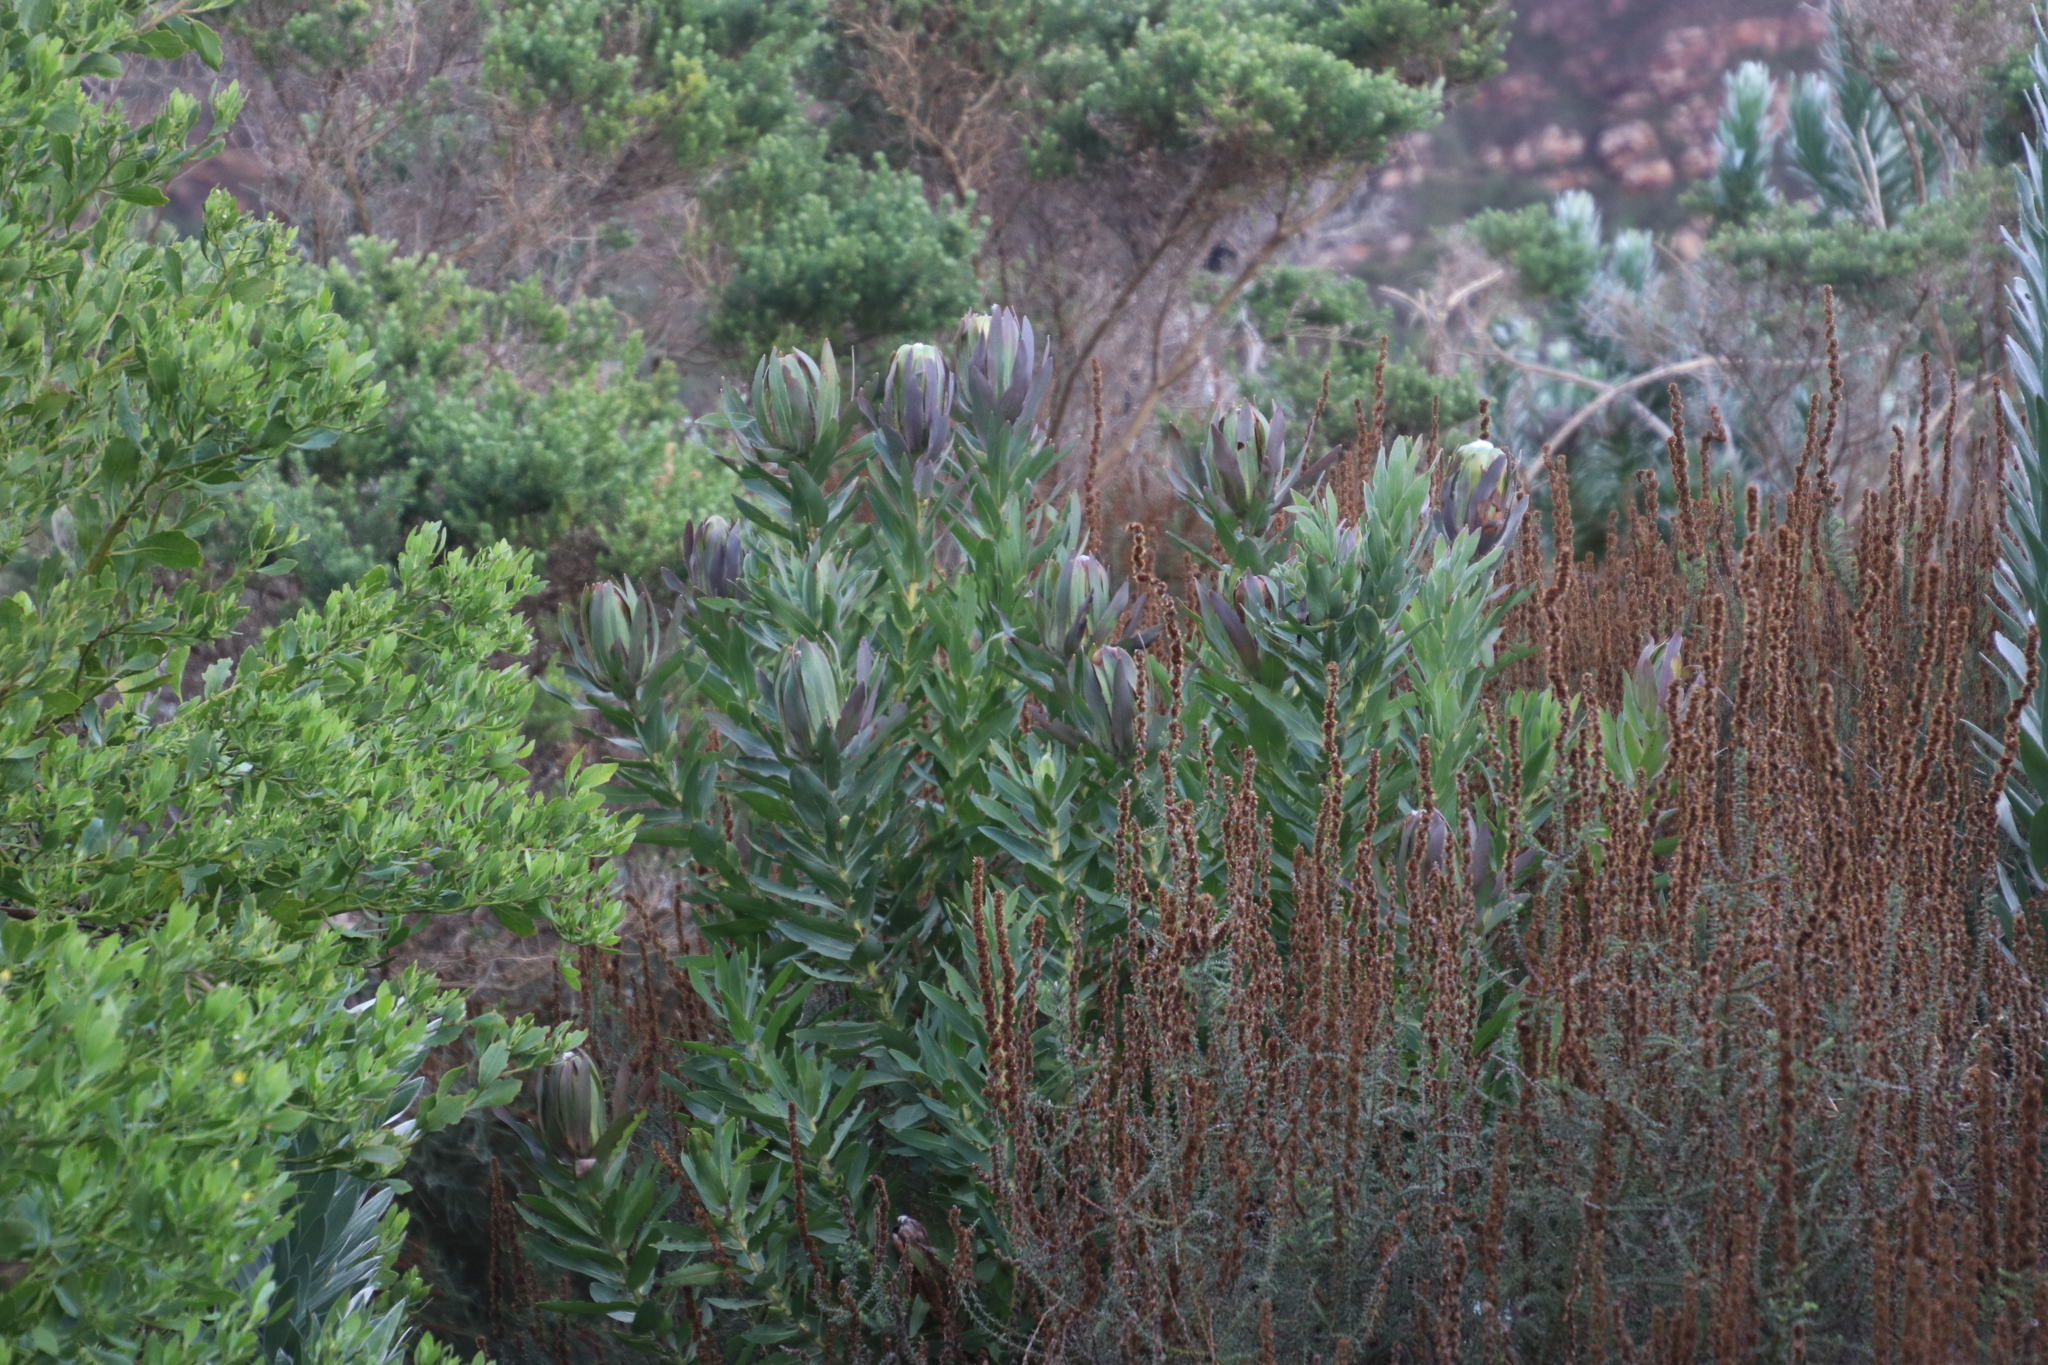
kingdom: Plantae
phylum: Tracheophyta
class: Magnoliopsida
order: Proteales
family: Proteaceae
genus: Protea
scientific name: Protea coronata
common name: Green sugarbush
